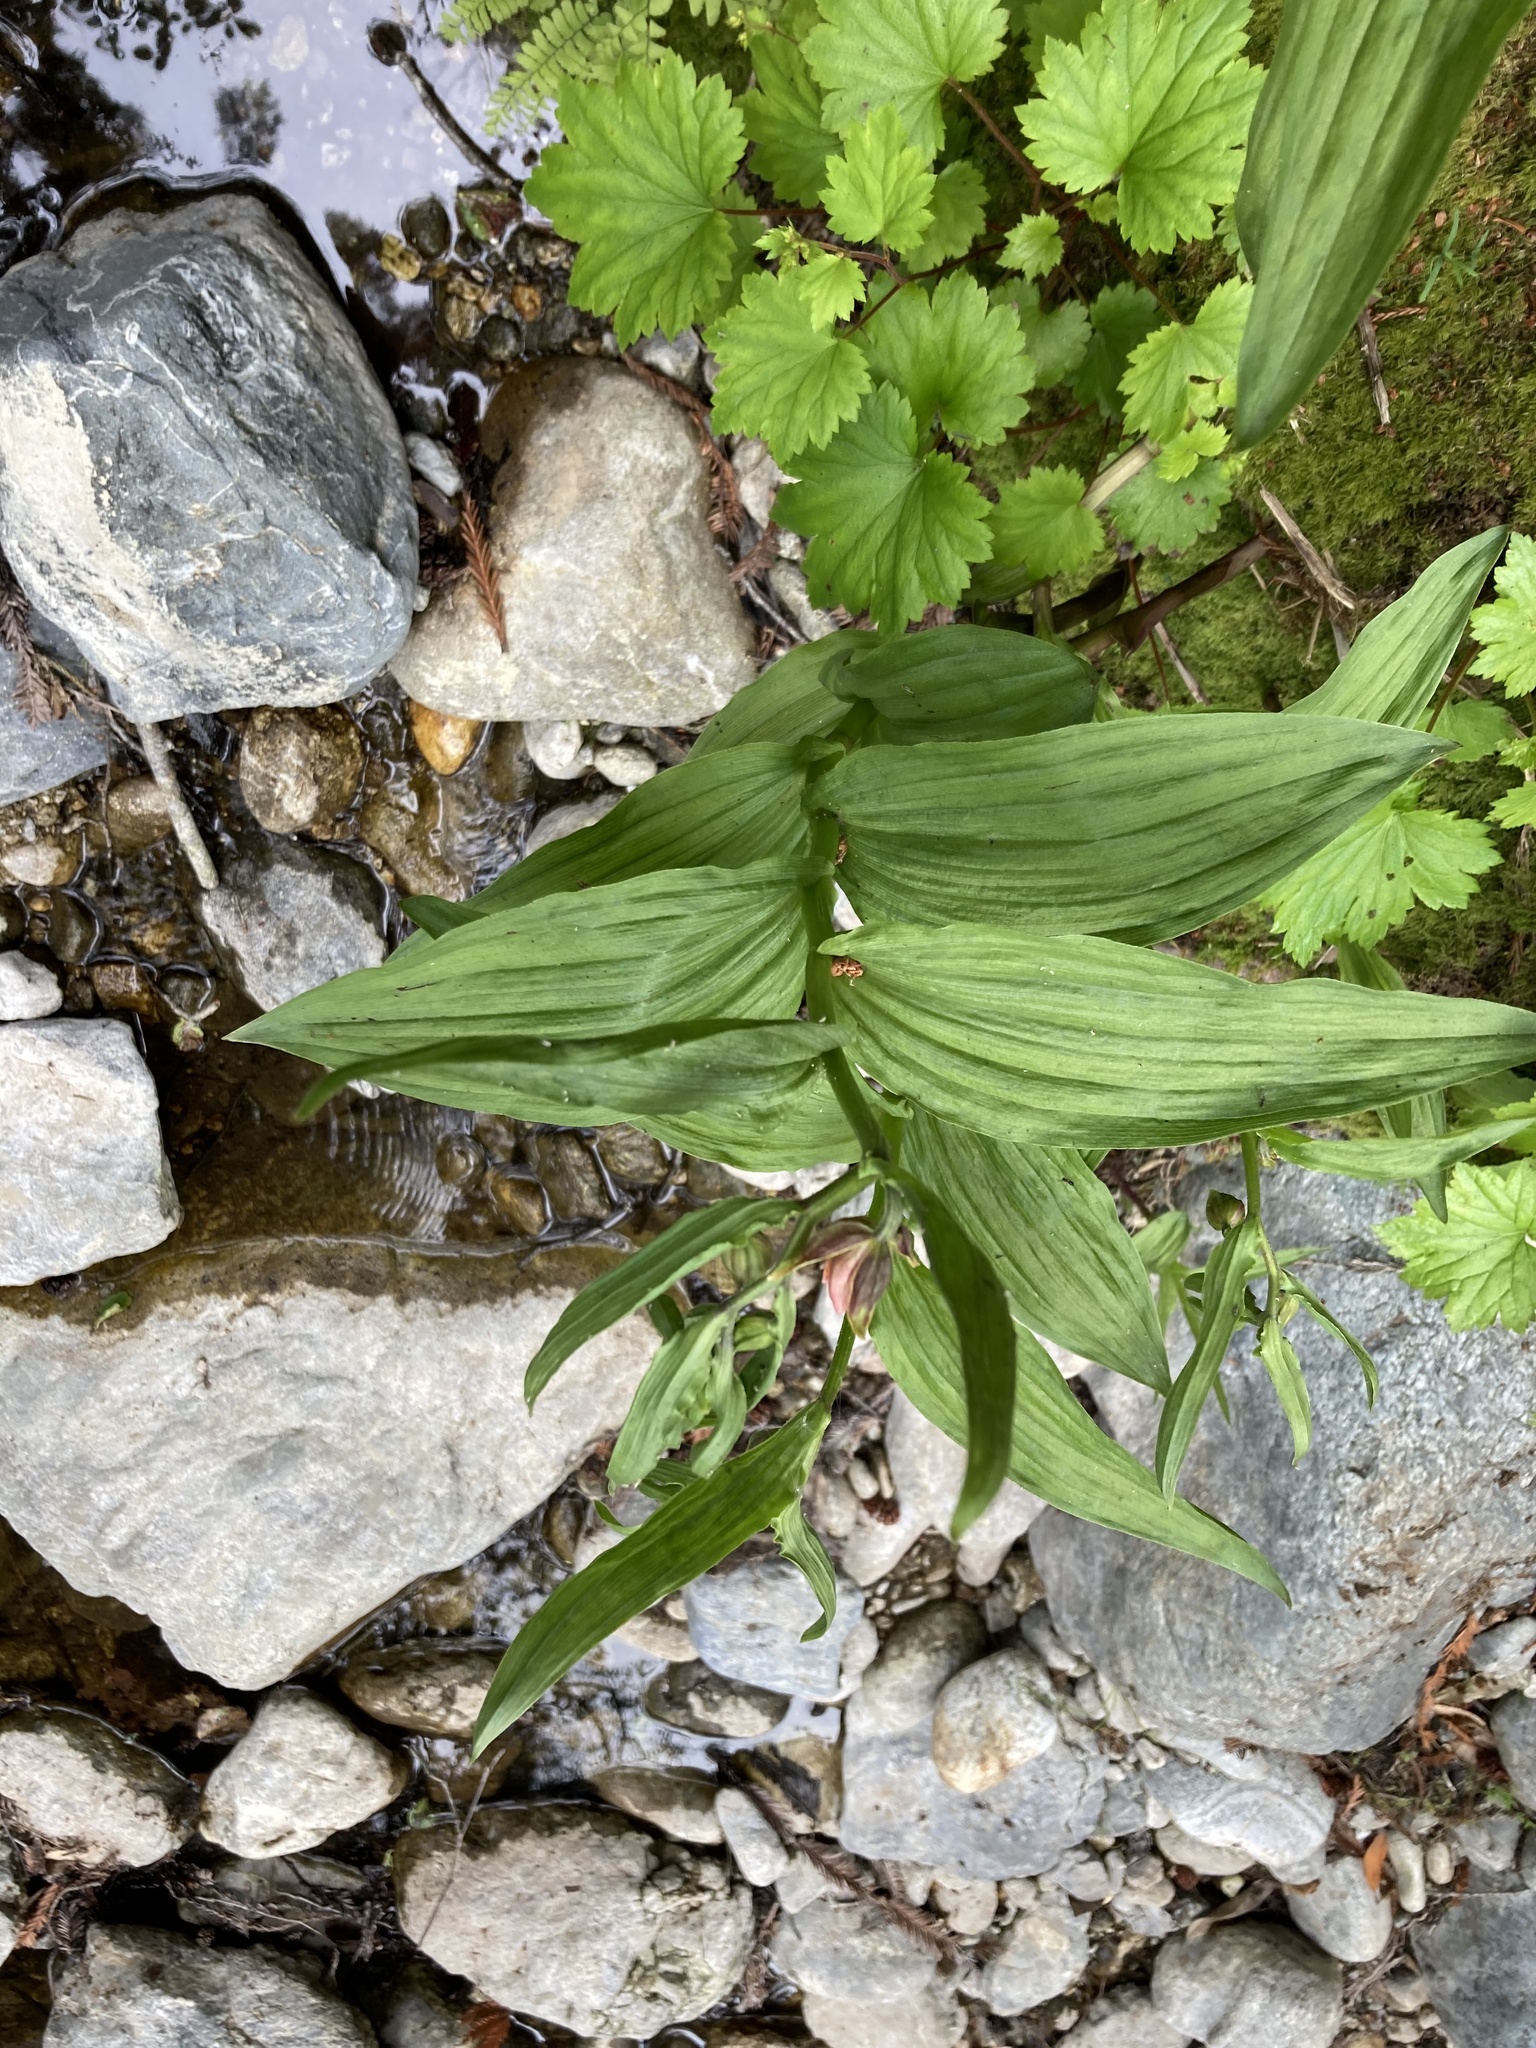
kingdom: Plantae
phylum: Tracheophyta
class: Liliopsida
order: Asparagales
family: Orchidaceae
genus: Epipactis
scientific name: Epipactis gigantea
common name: Chatterbox
